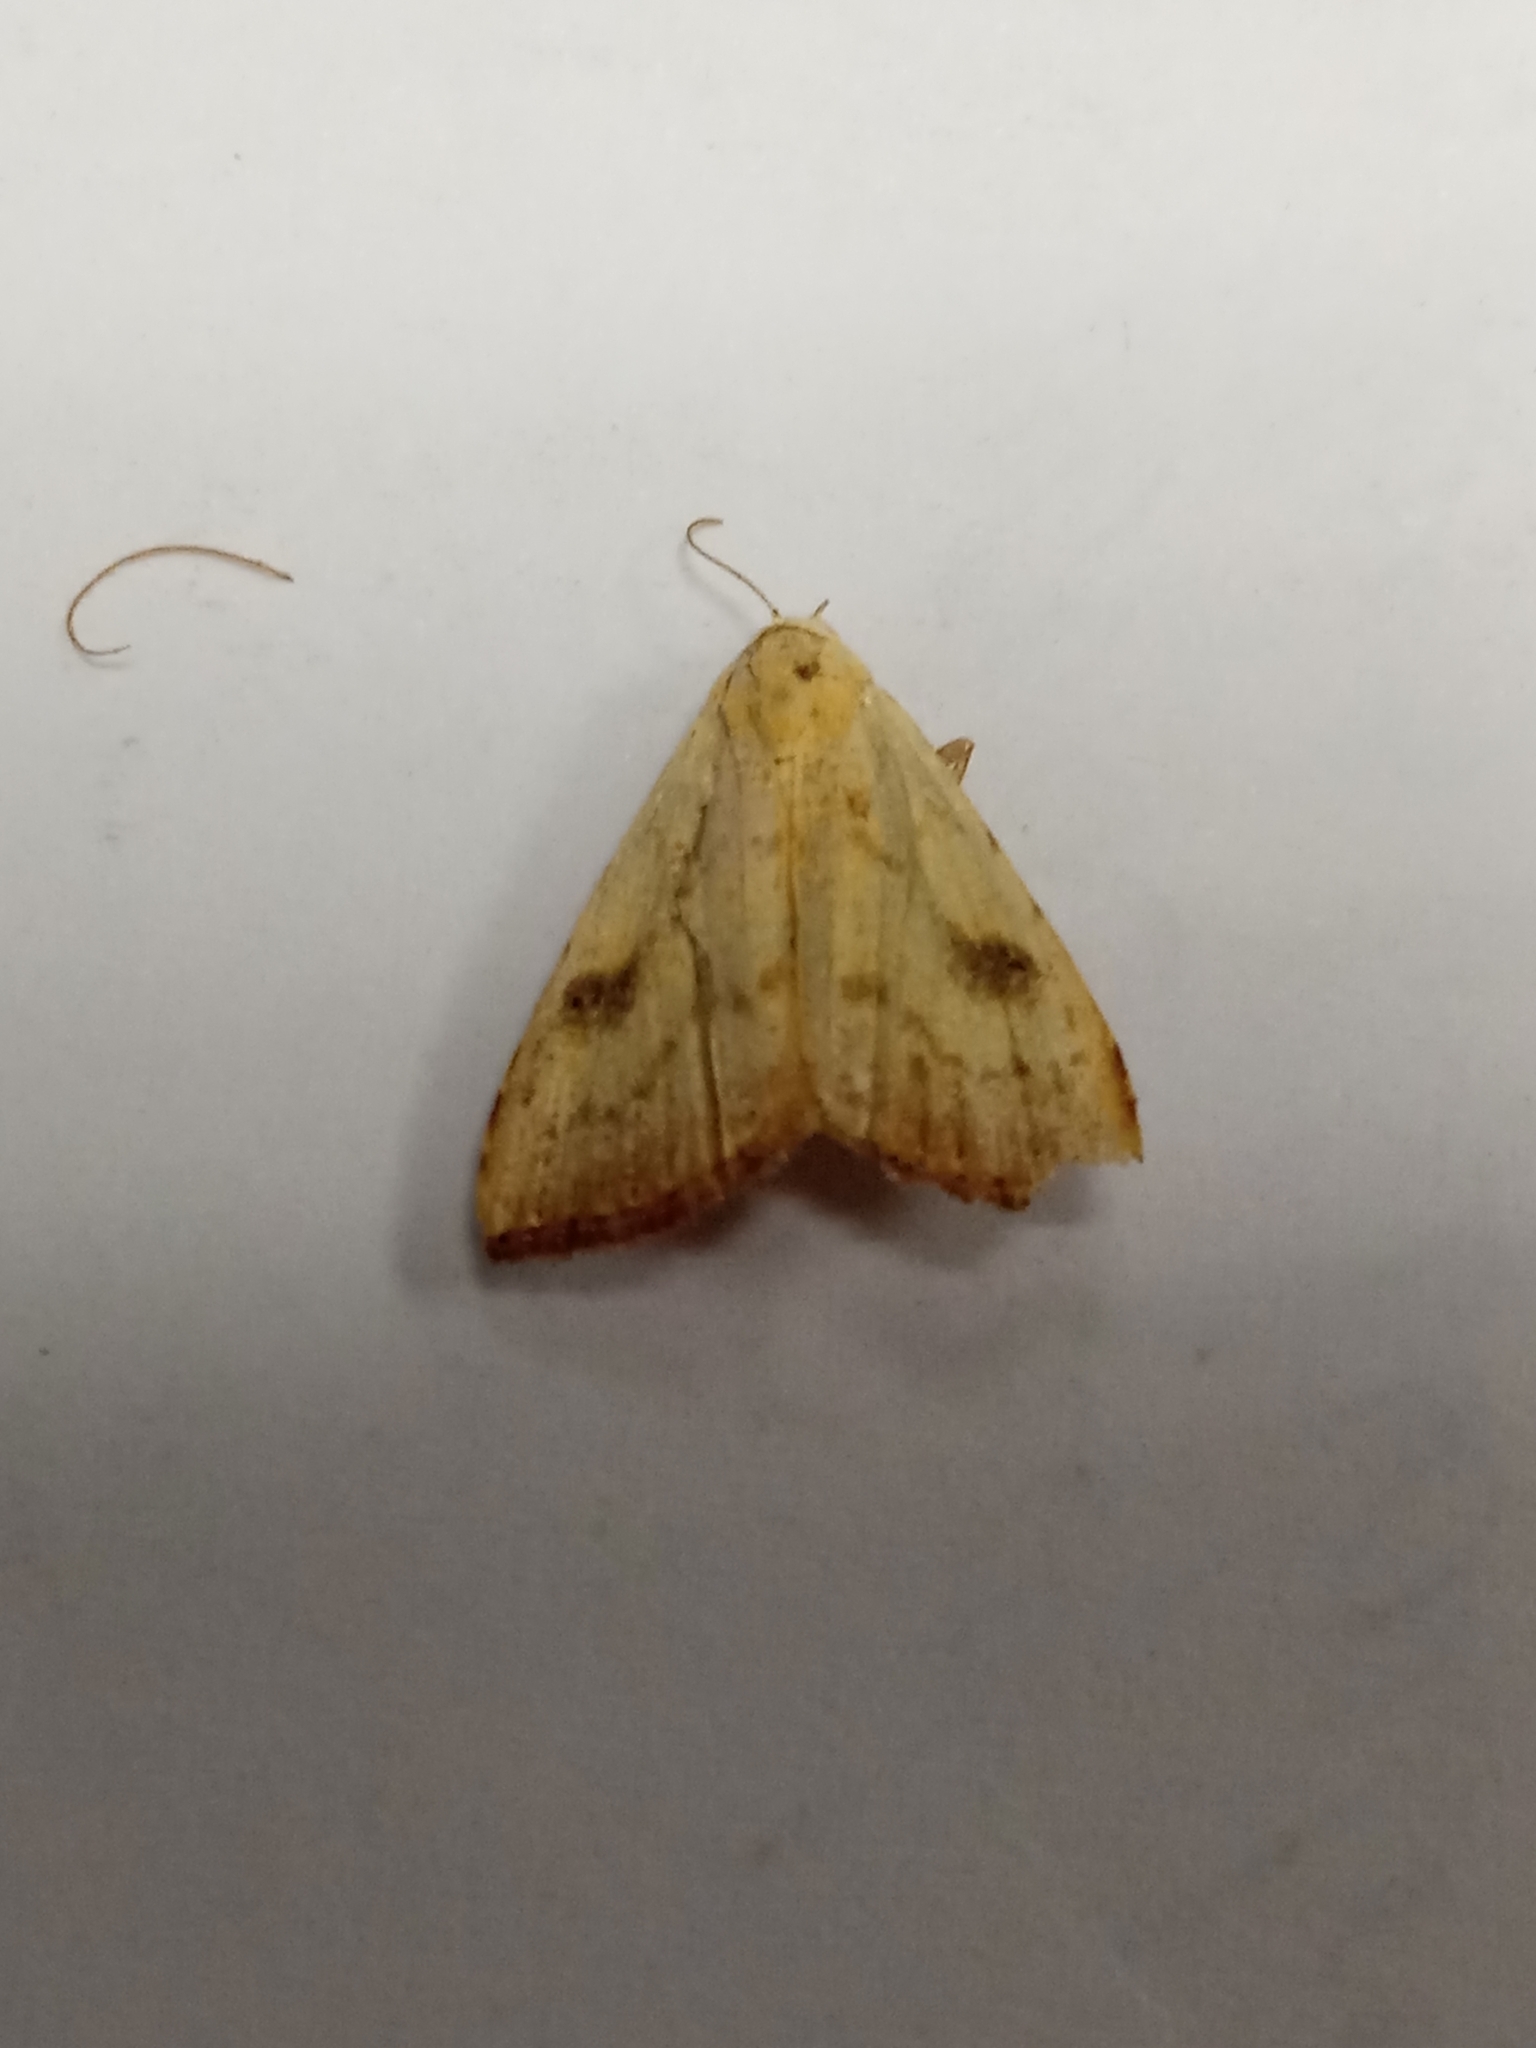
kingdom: Animalia
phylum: Arthropoda
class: Insecta
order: Lepidoptera
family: Erebidae
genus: Rivula
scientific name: Rivula sericealis
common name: Straw dot
